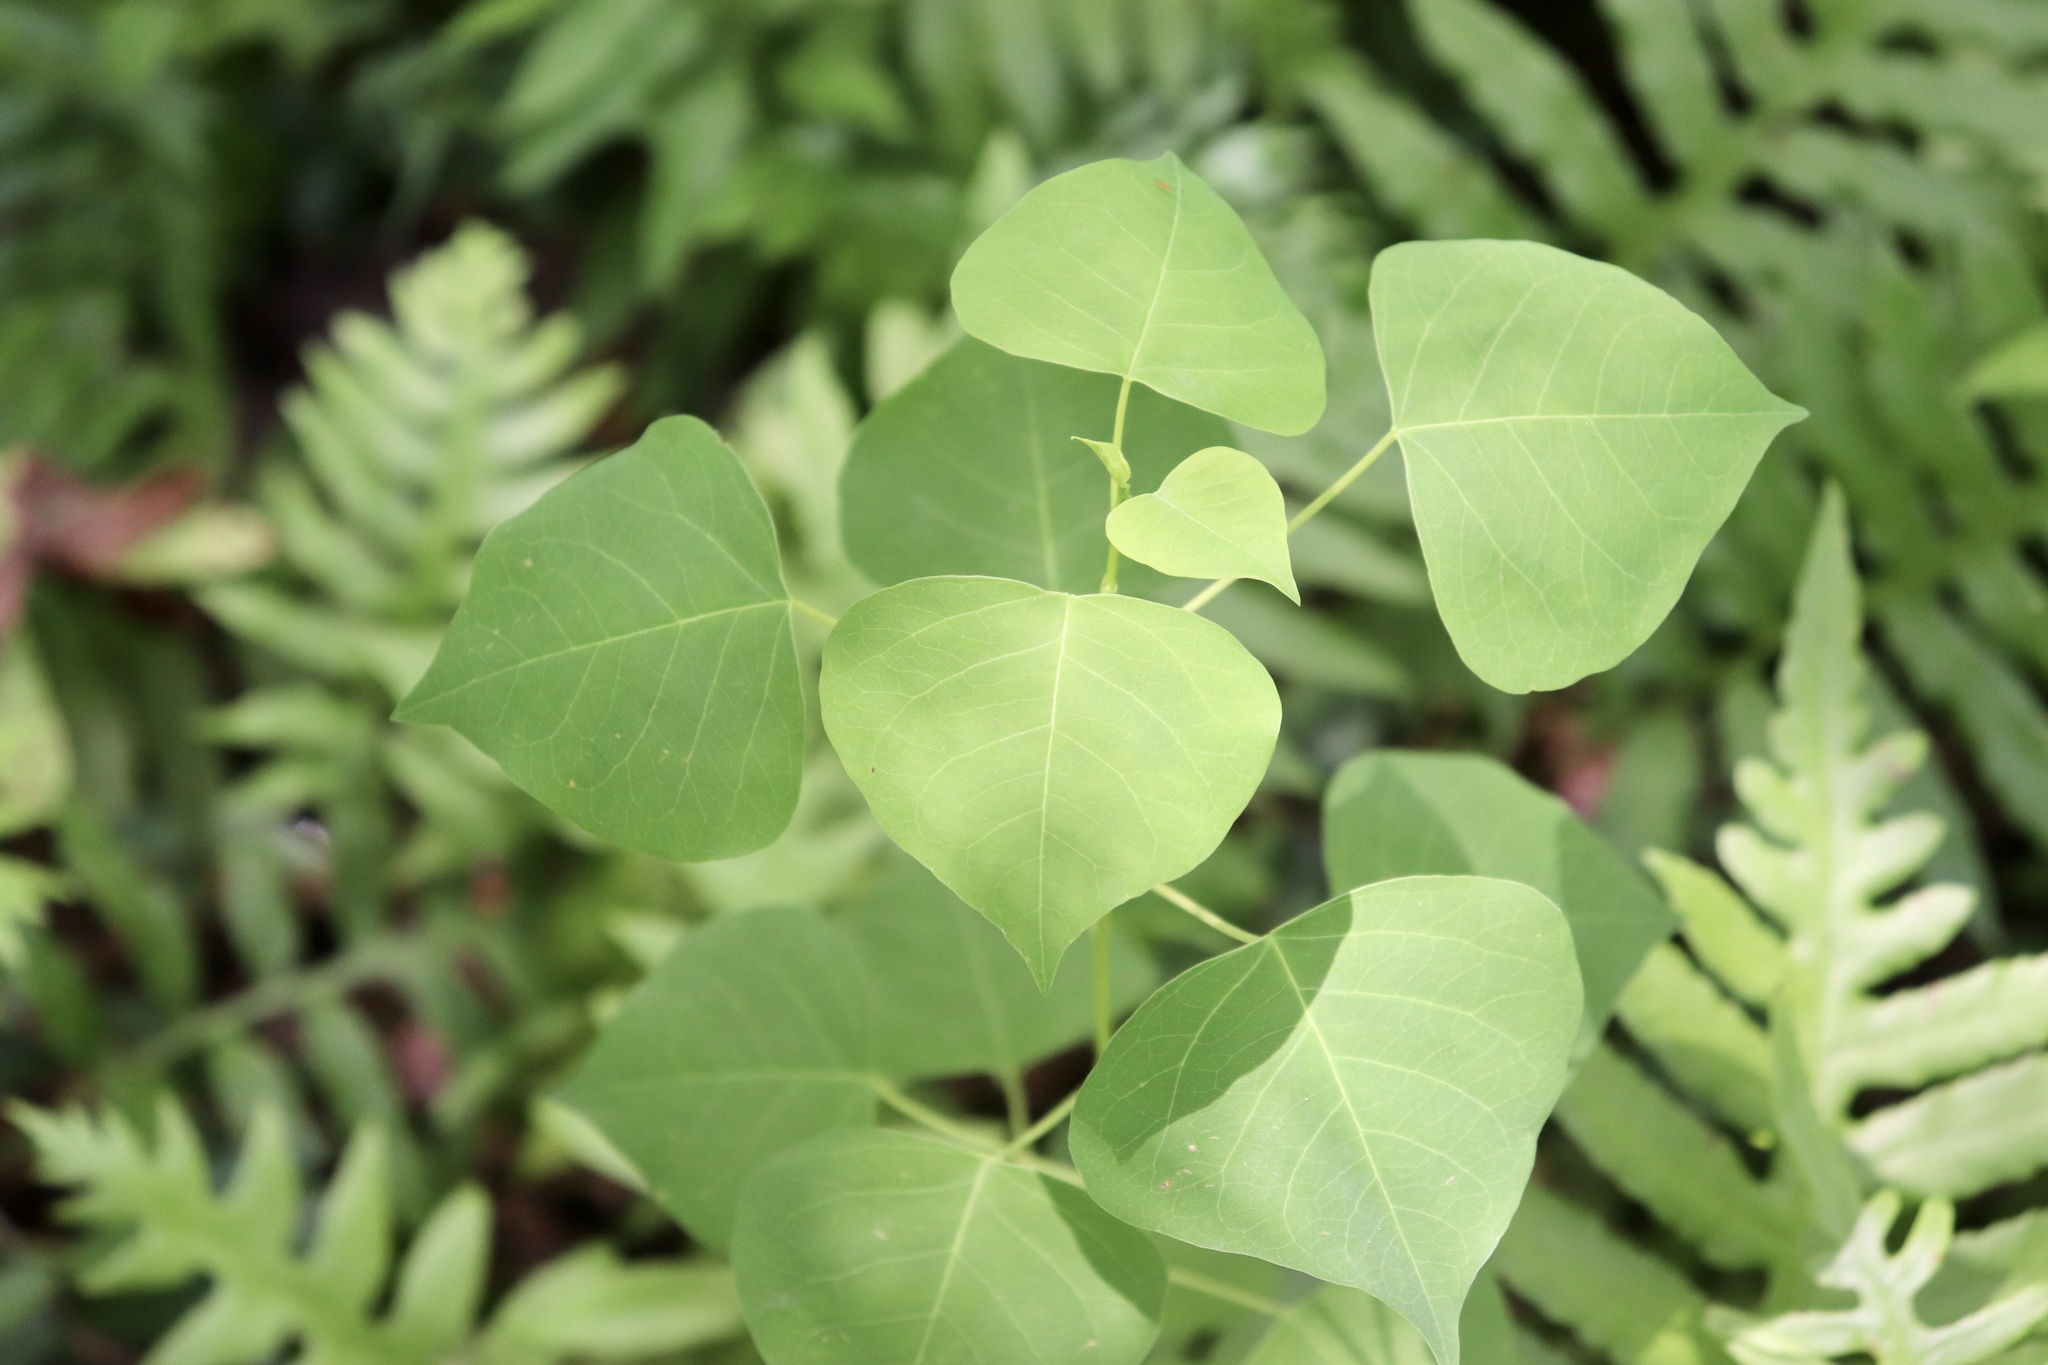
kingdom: Plantae
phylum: Tracheophyta
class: Magnoliopsida
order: Malpighiales
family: Euphorbiaceae
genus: Triadica
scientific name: Triadica sebifera
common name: Chinese tallow
